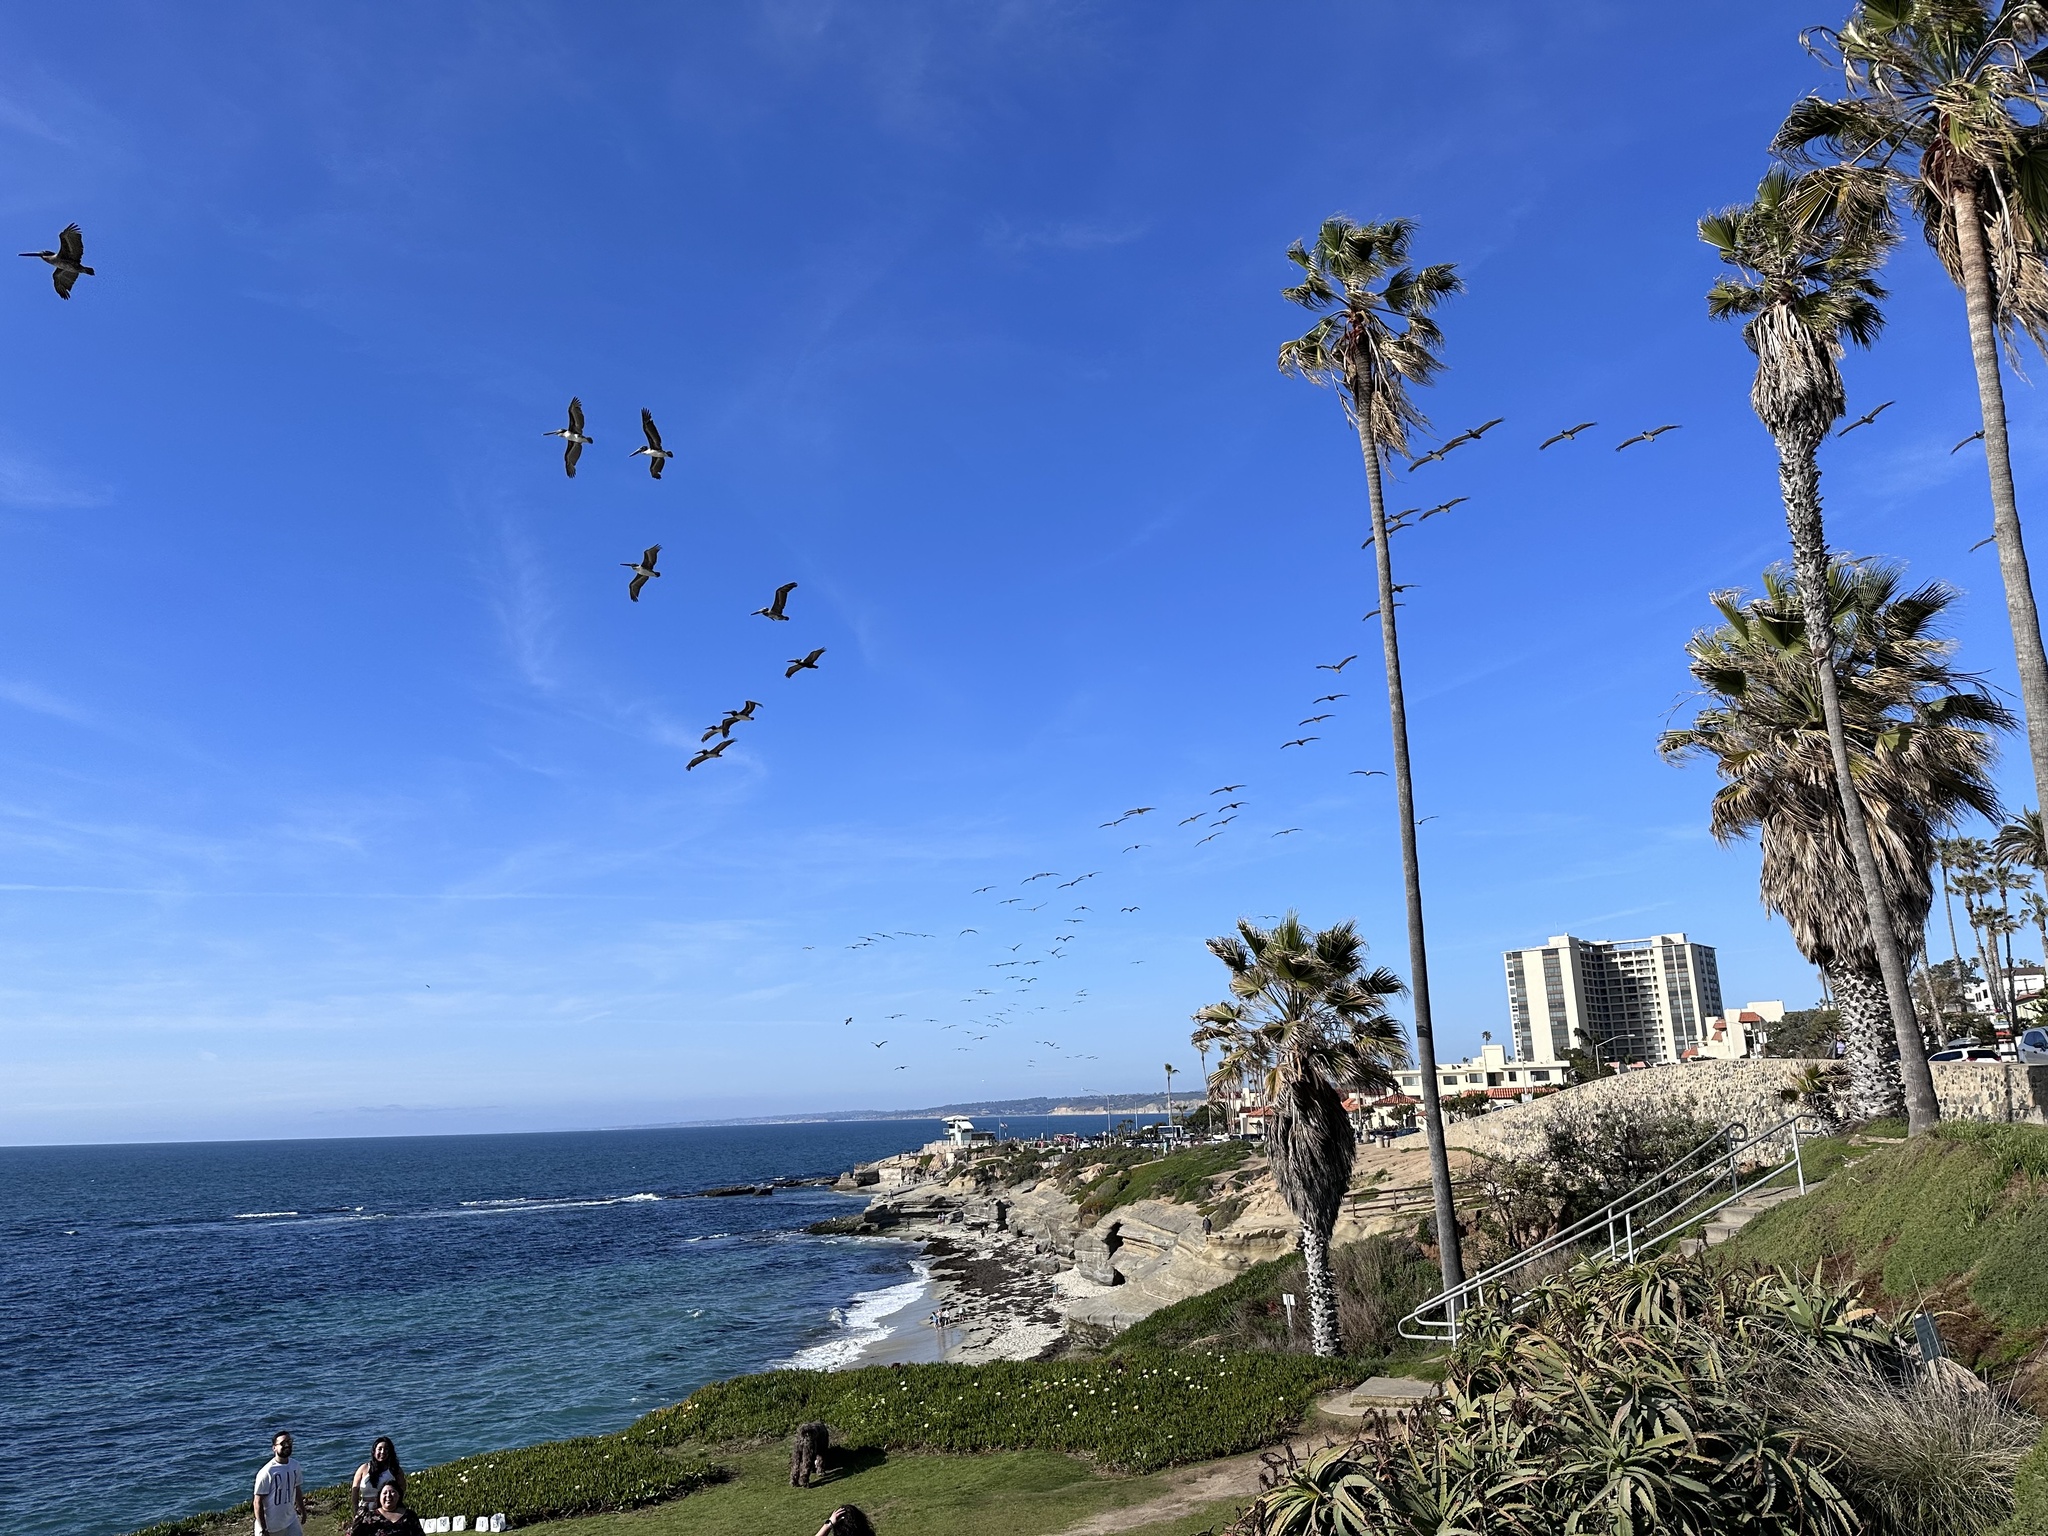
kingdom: Animalia
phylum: Chordata
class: Aves
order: Pelecaniformes
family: Pelecanidae
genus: Pelecanus
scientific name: Pelecanus occidentalis
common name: Brown pelican
